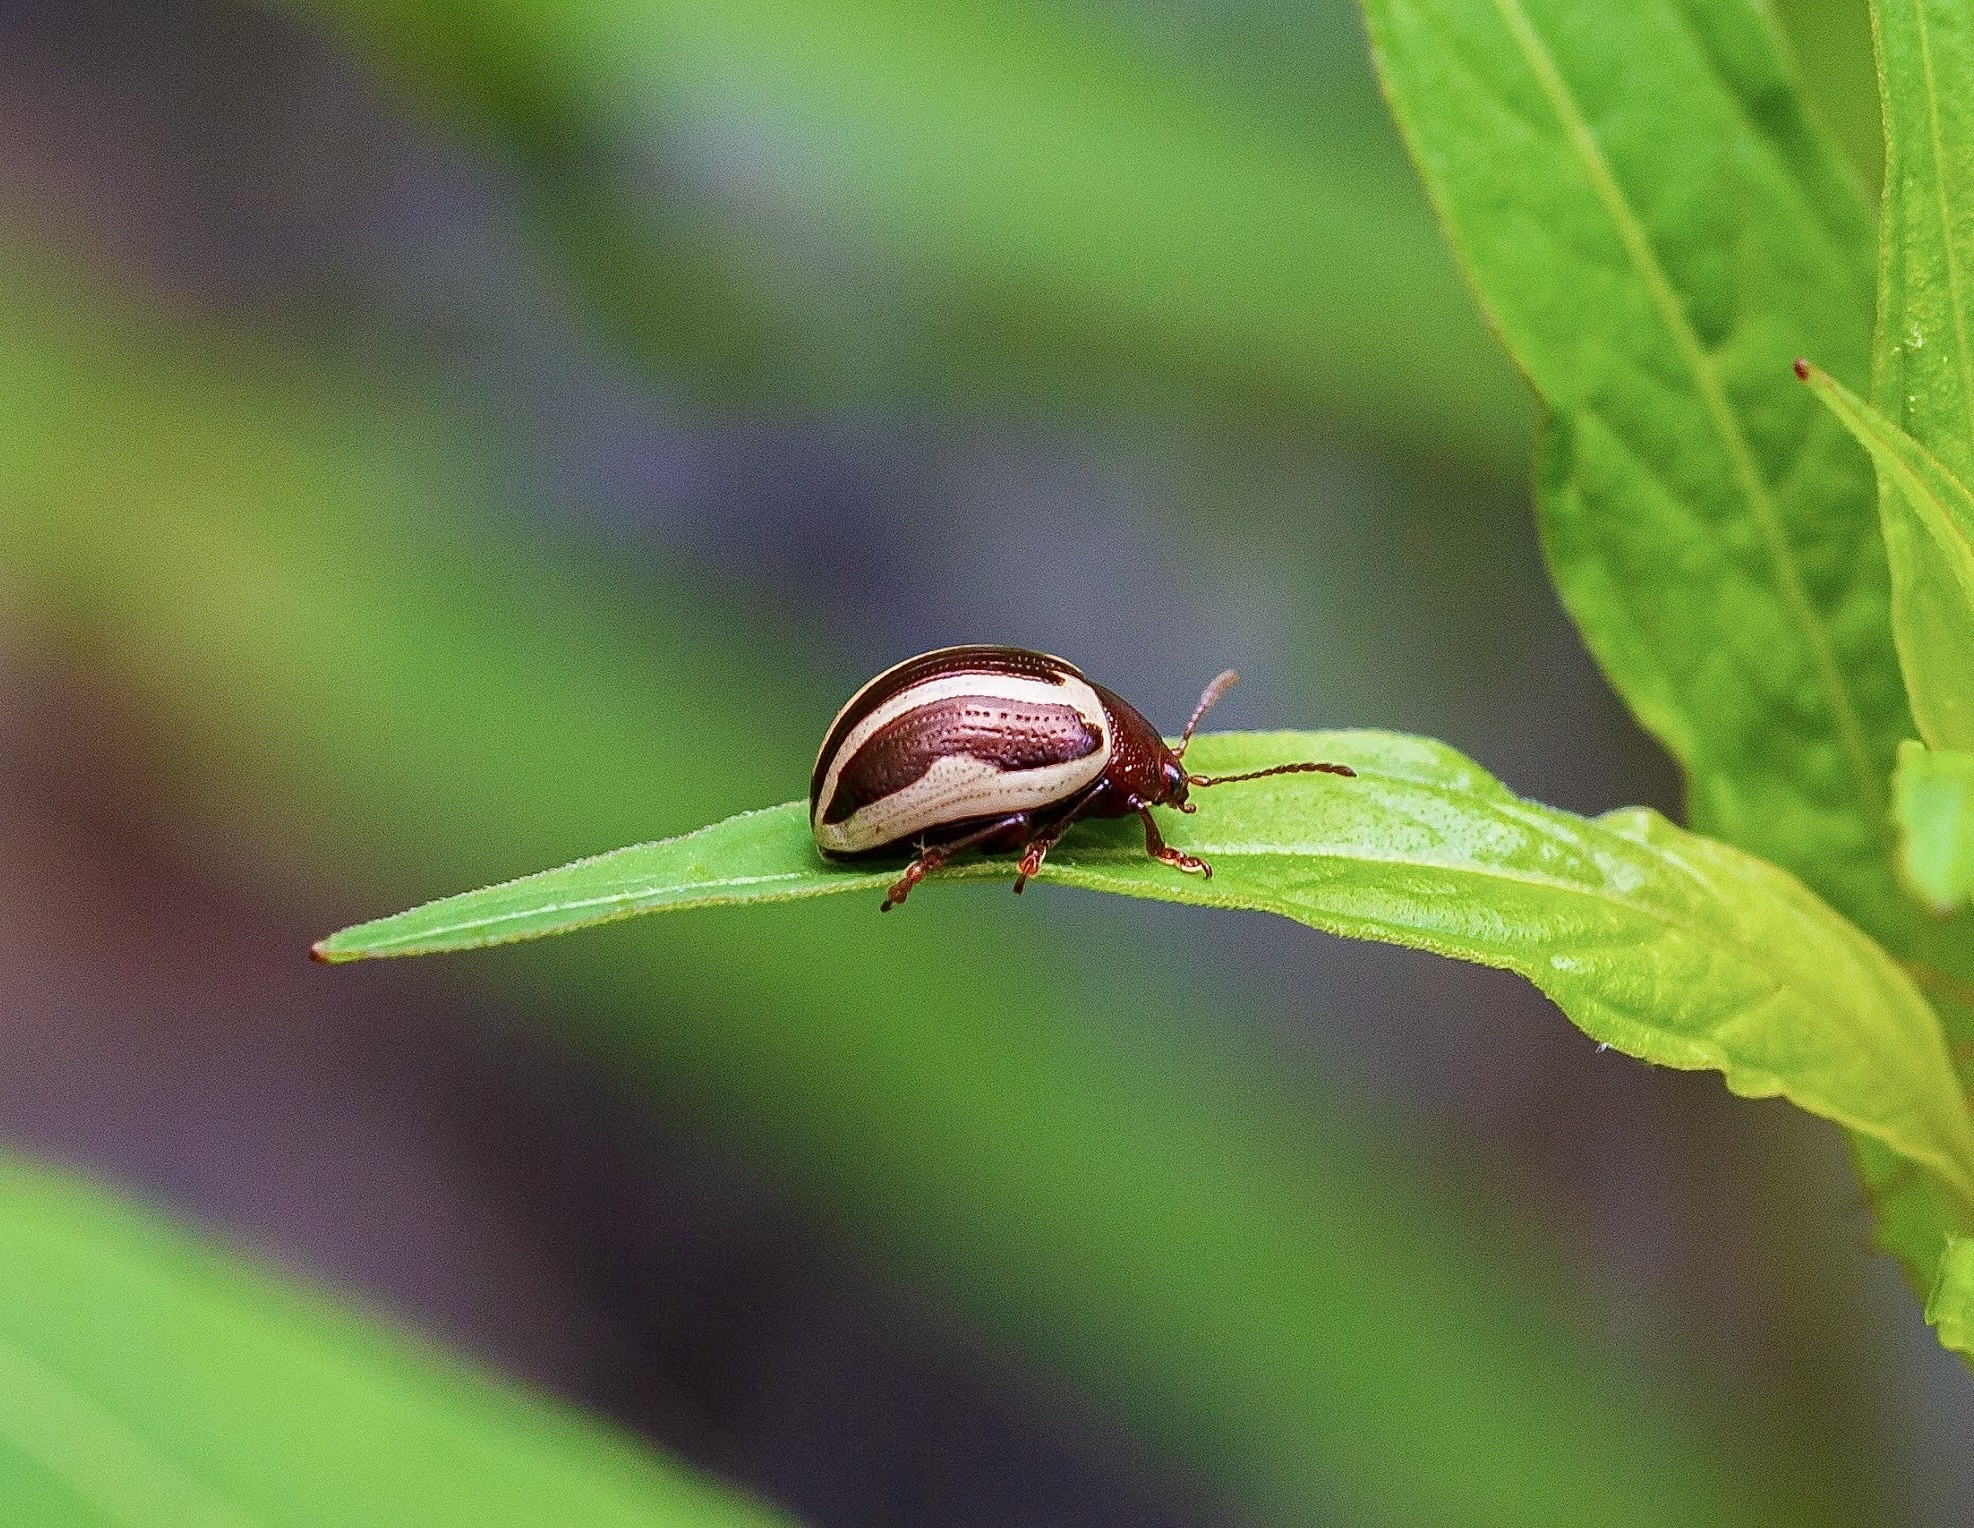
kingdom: Animalia
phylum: Arthropoda
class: Insecta
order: Coleoptera
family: Chrysomelidae
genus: Calligrapha
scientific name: Calligrapha bidenticola
